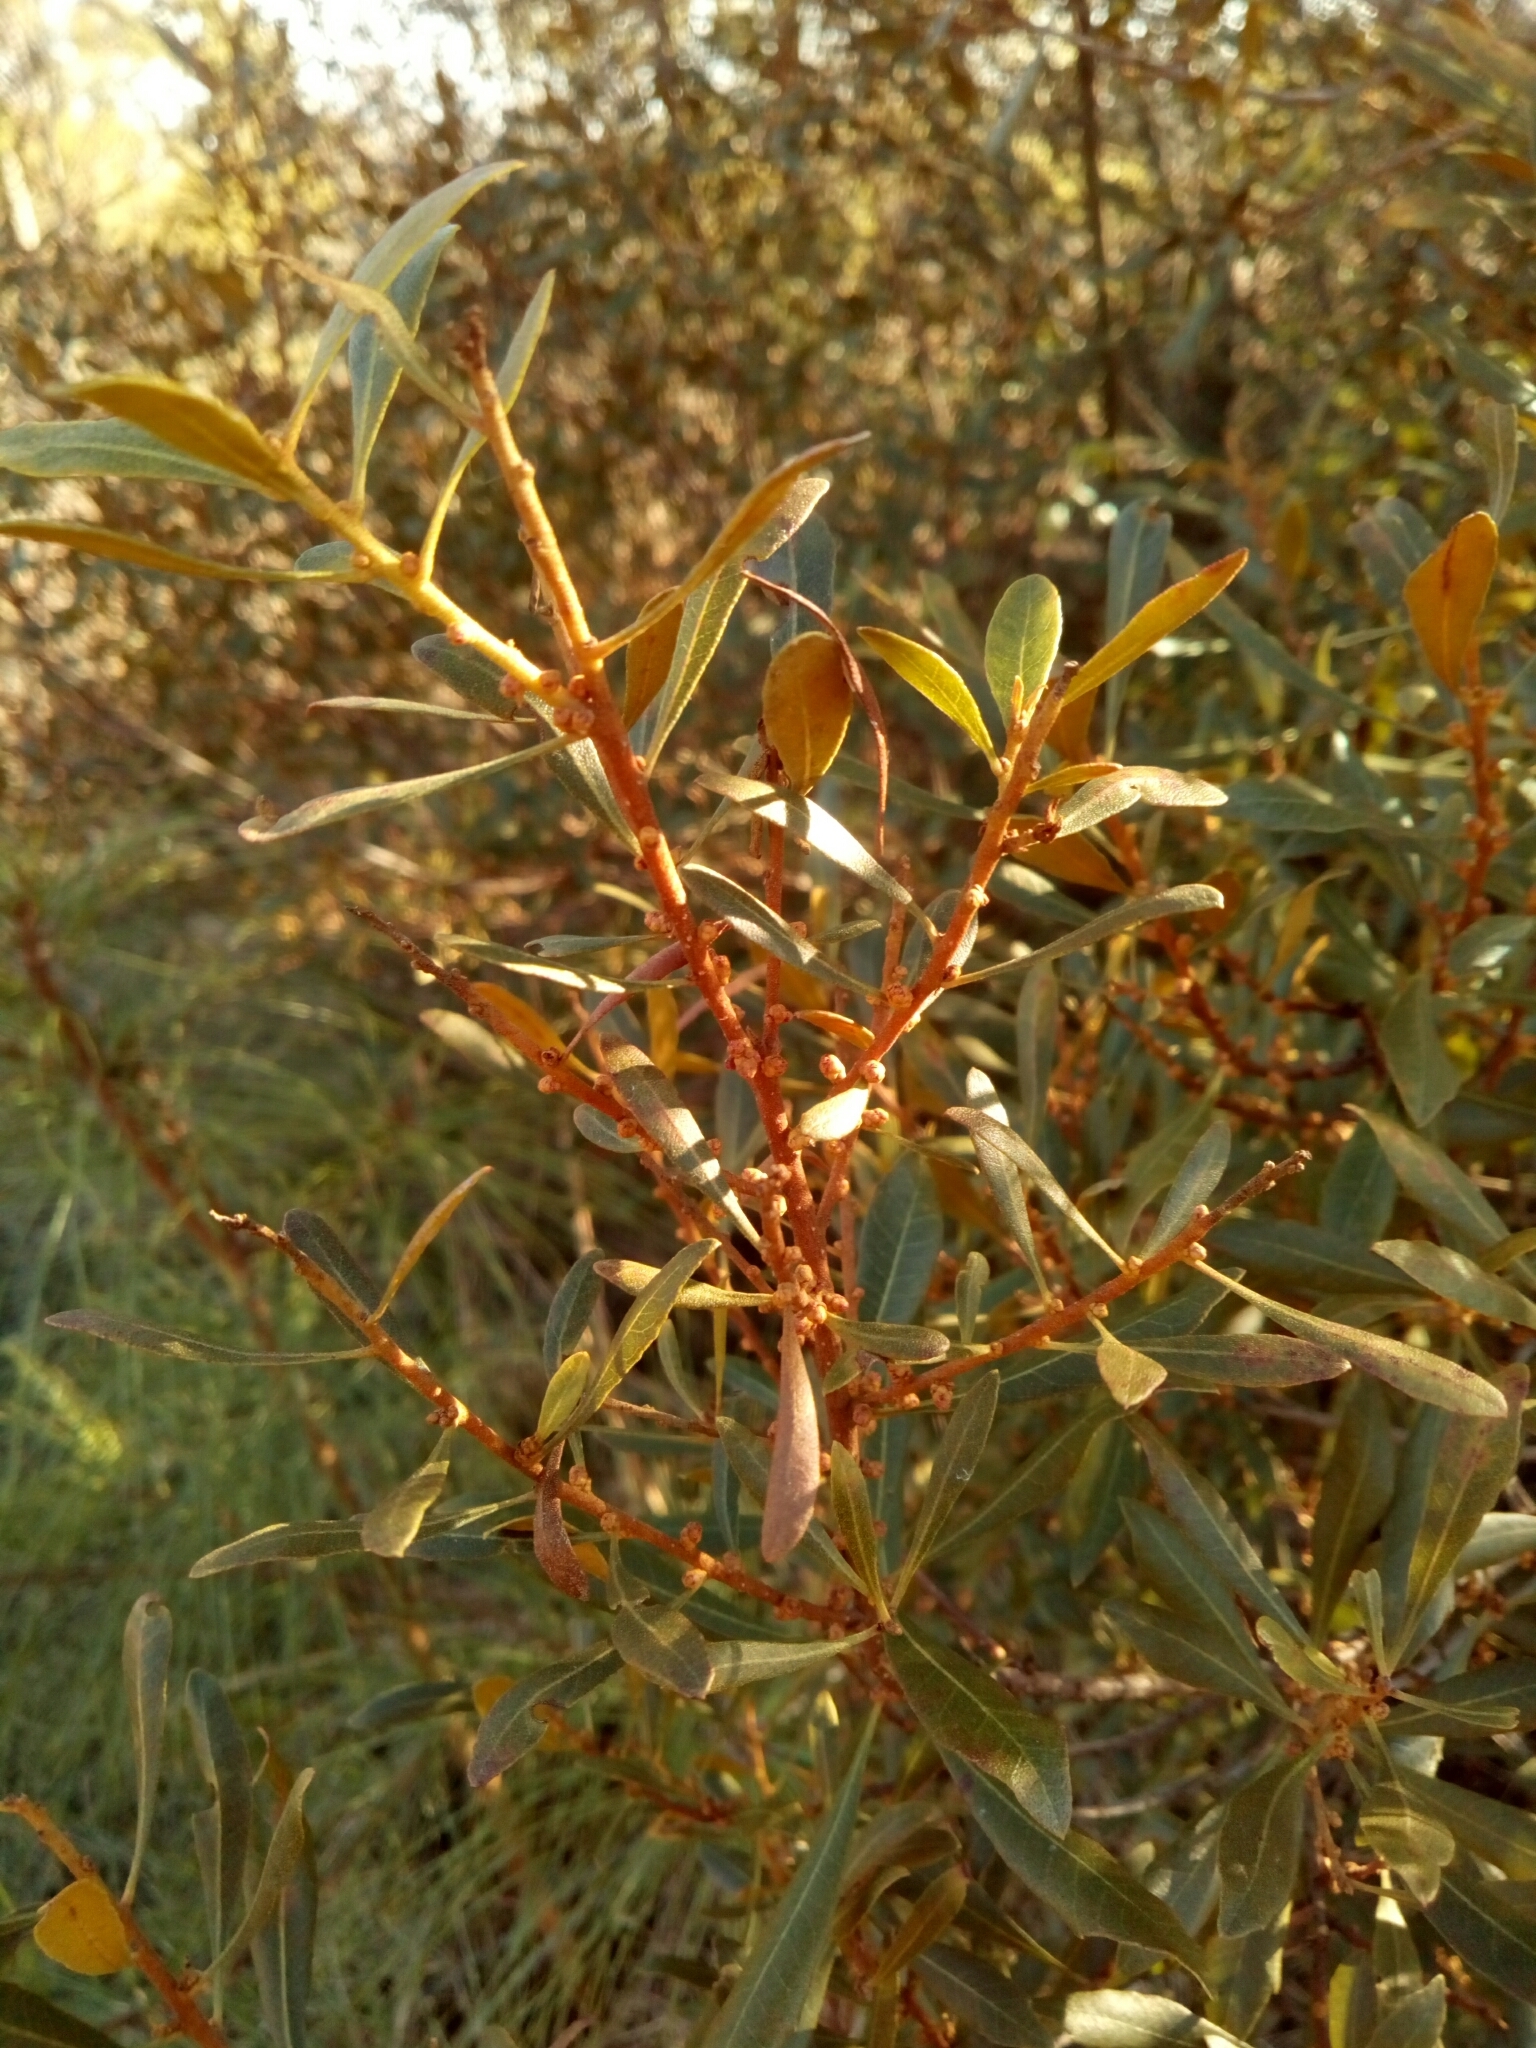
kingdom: Plantae
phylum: Tracheophyta
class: Magnoliopsida
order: Fagales
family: Myricaceae
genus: Morella
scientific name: Morella cerifera
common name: Wax myrtle
